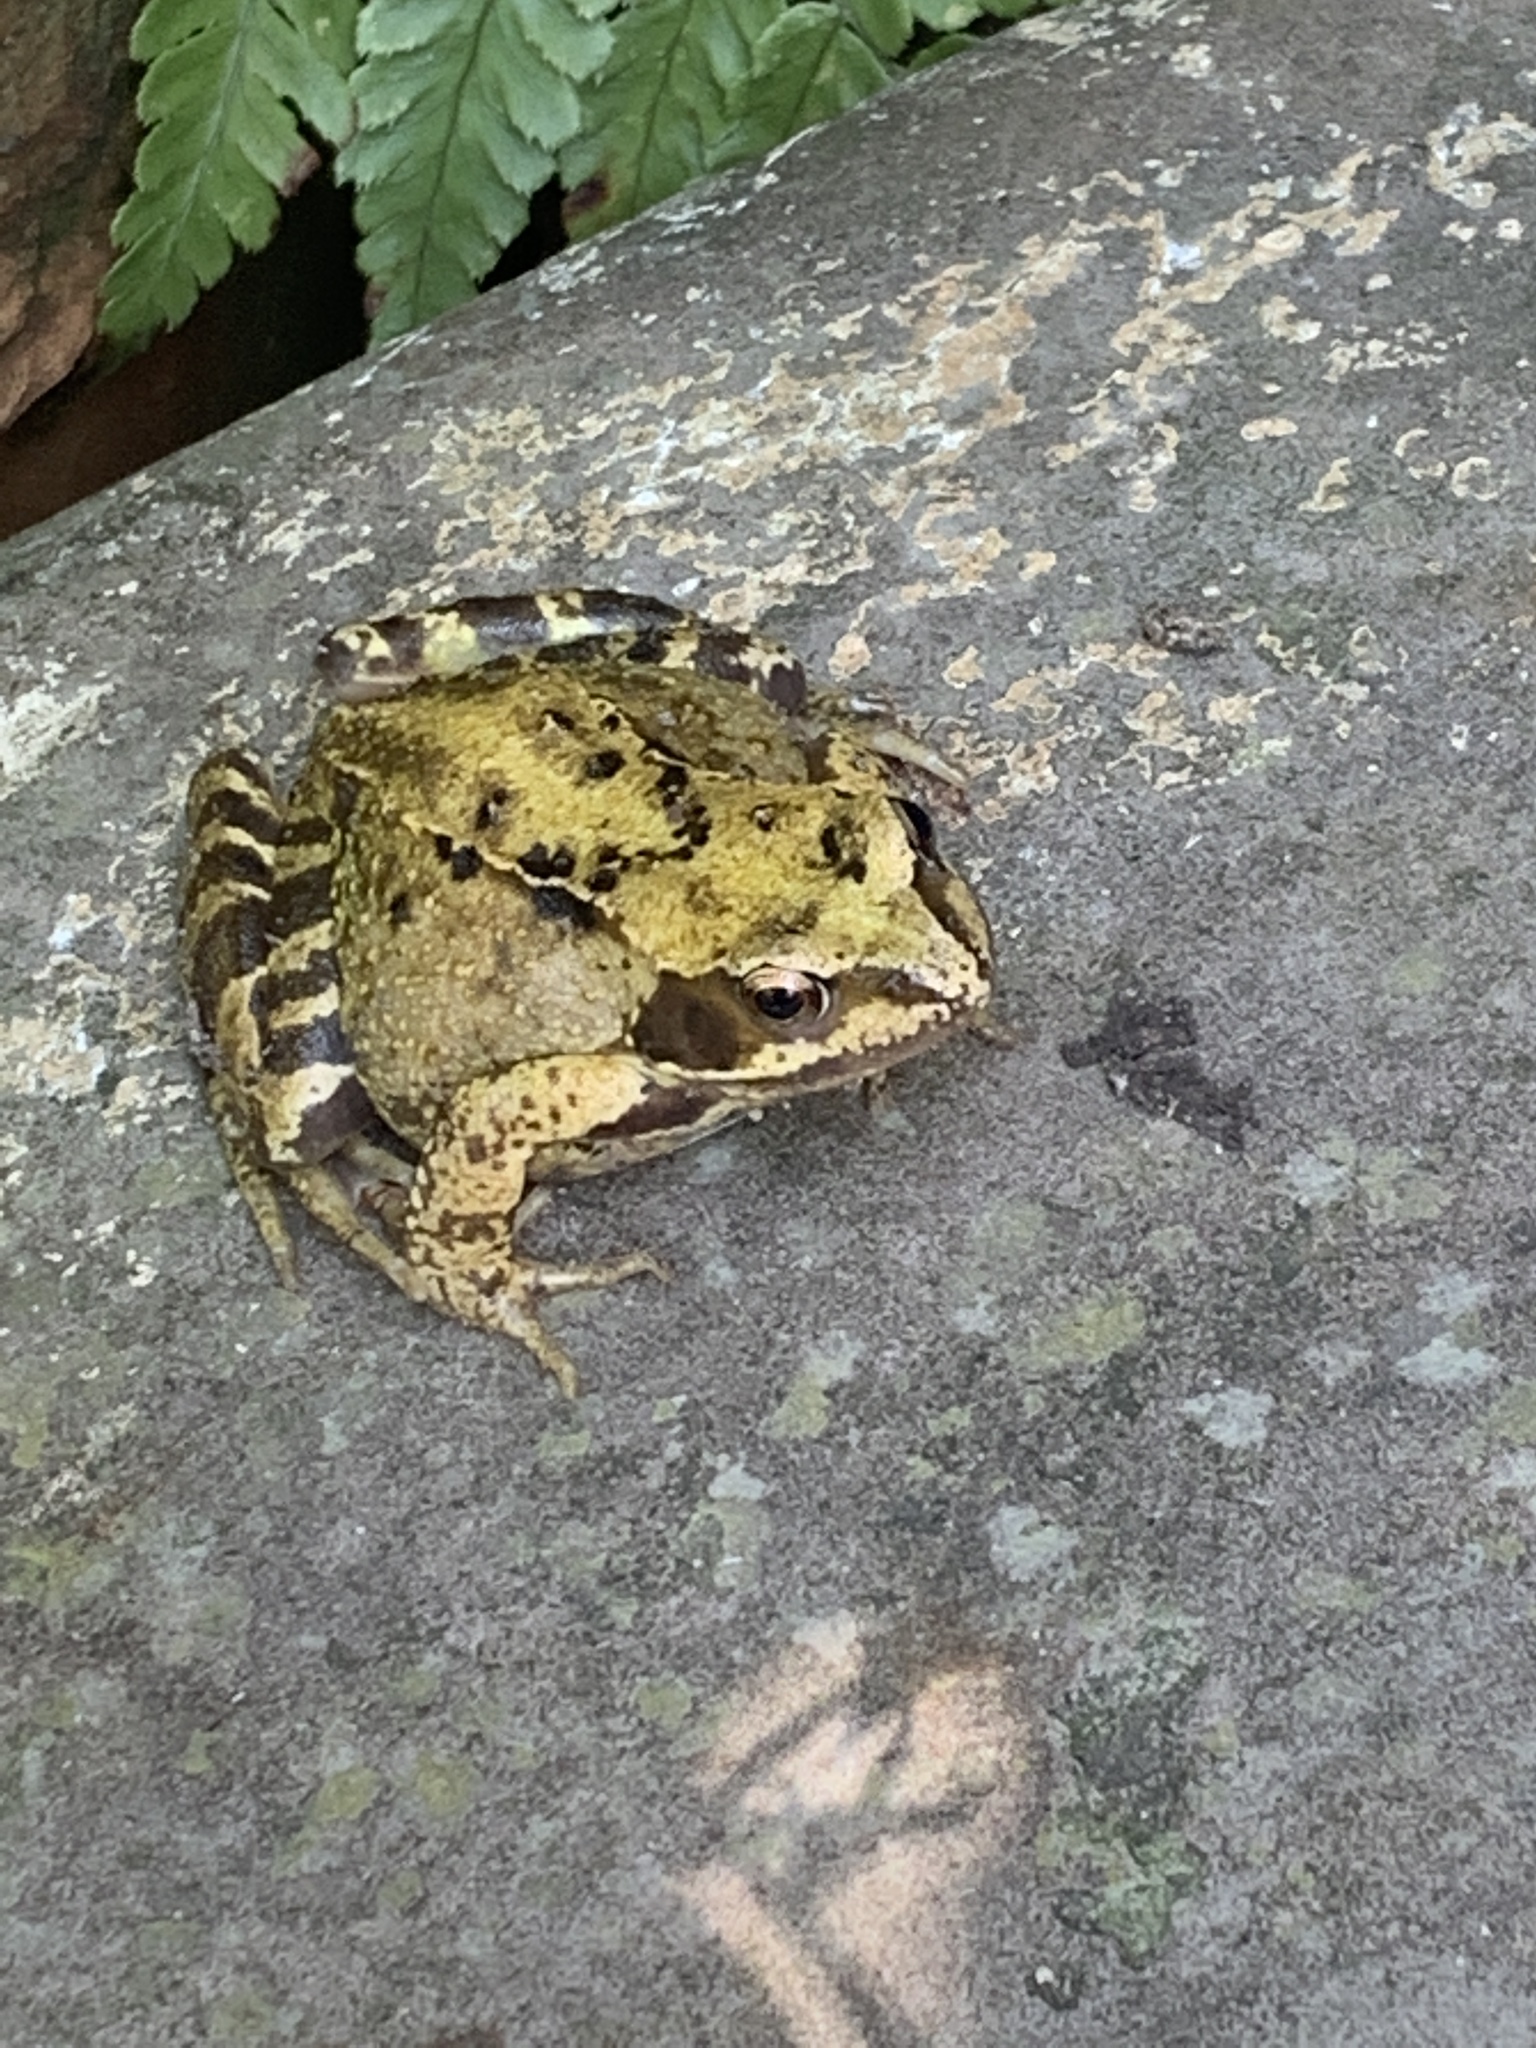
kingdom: Animalia
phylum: Chordata
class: Amphibia
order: Anura
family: Ranidae
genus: Rana
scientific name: Rana temporaria
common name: Common frog
